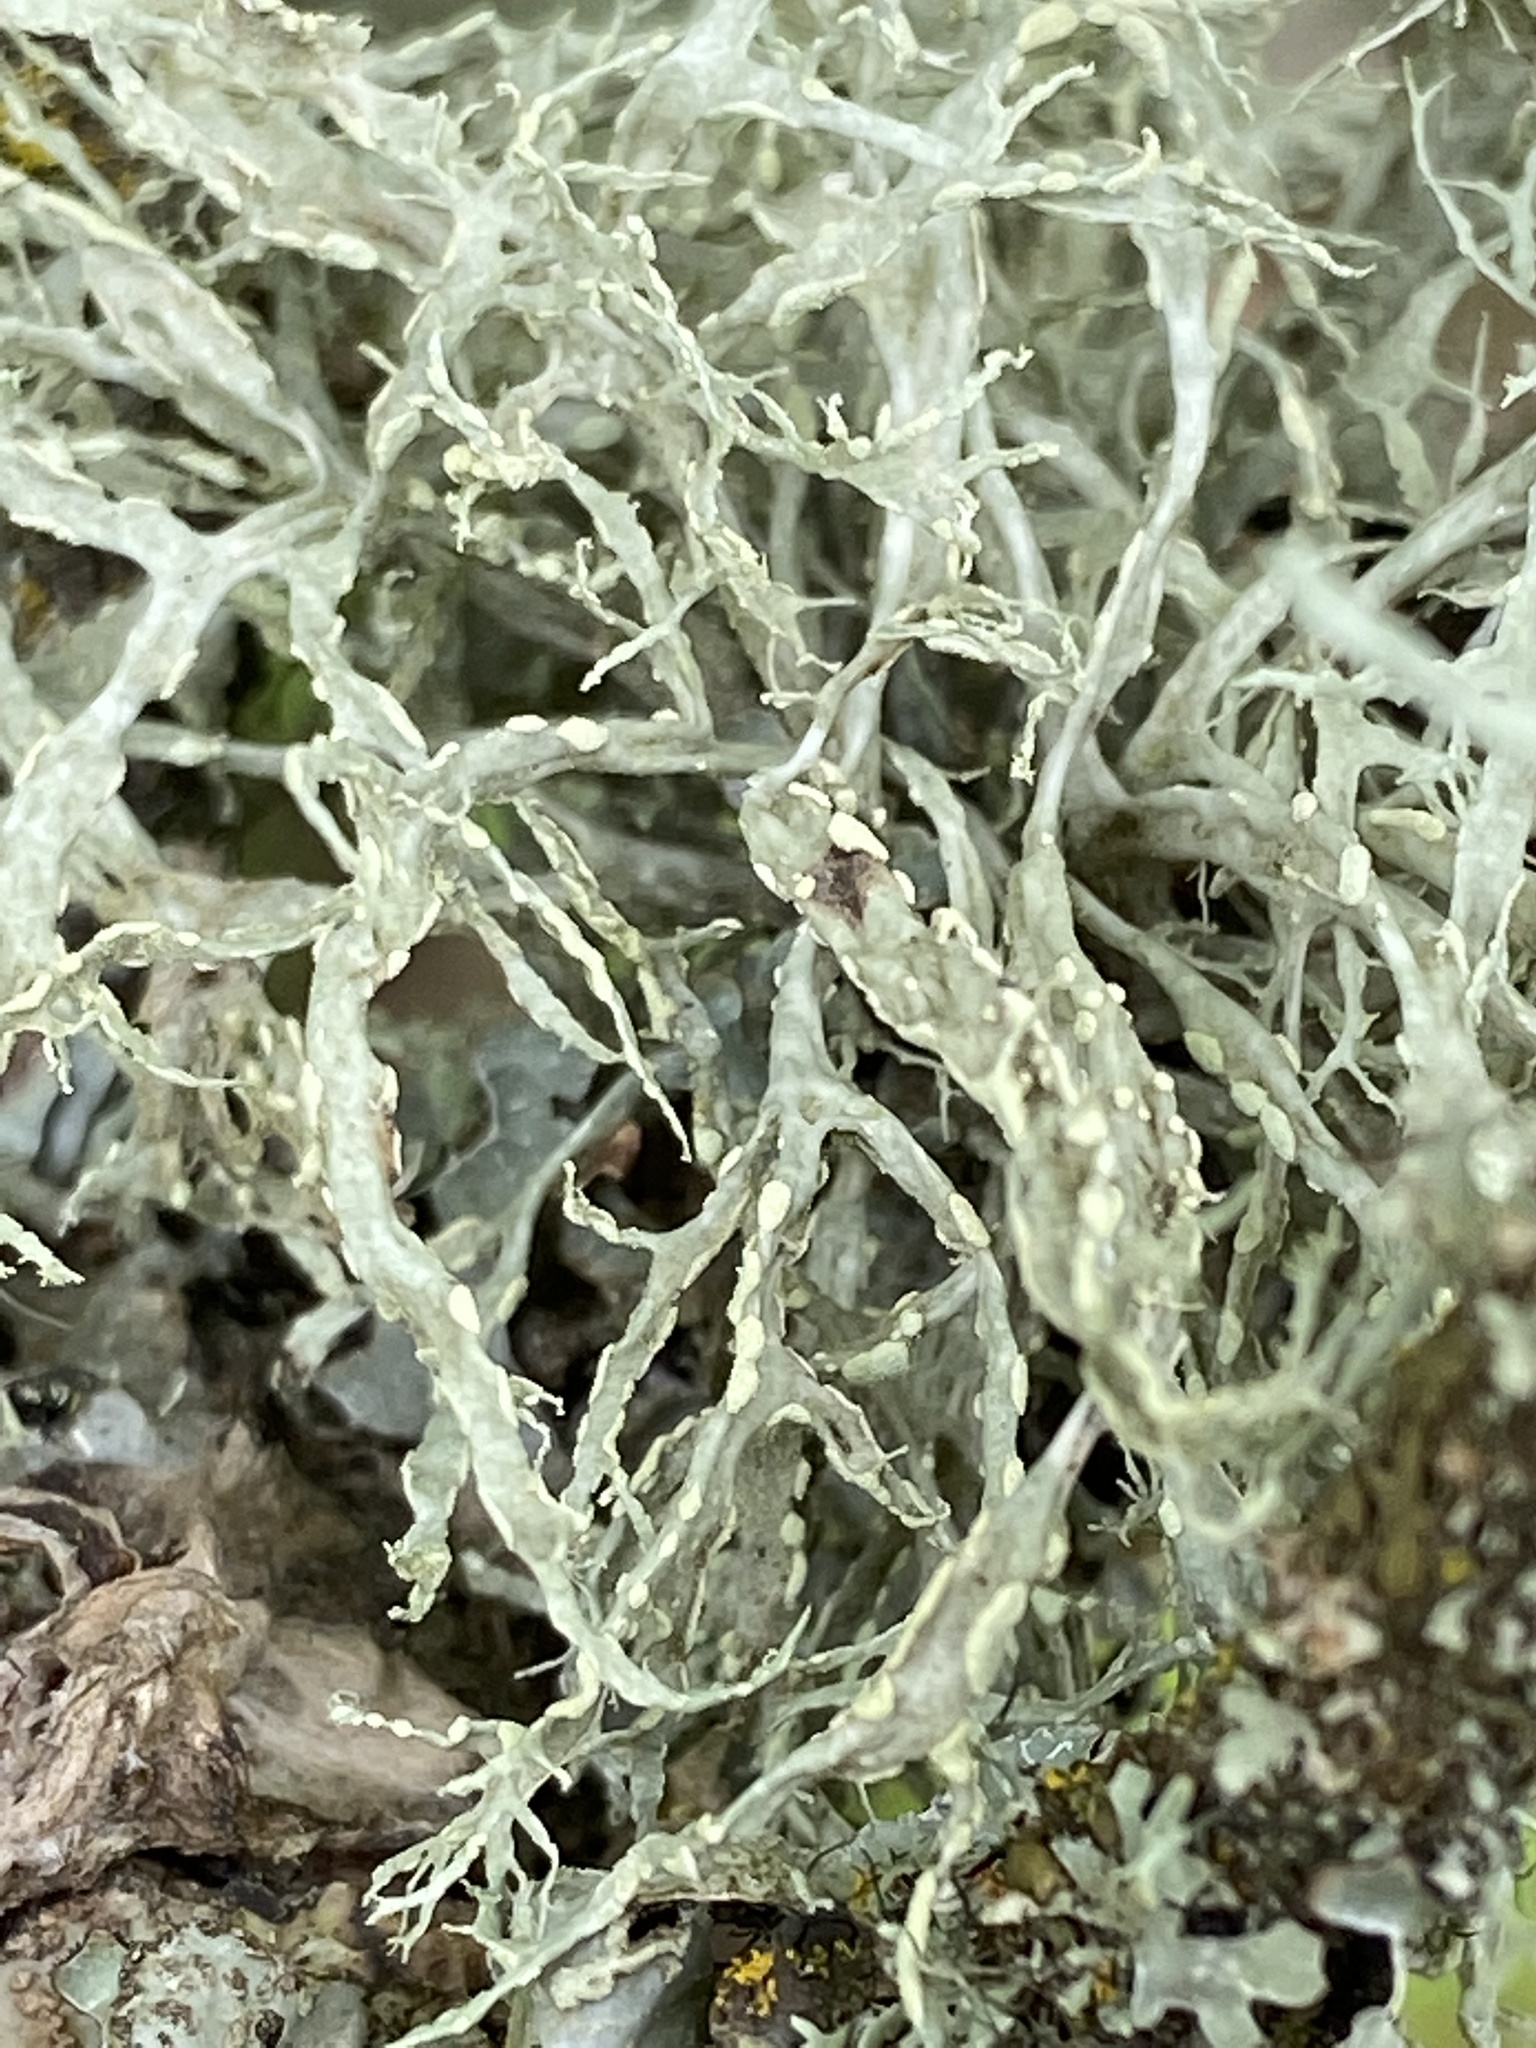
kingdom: Fungi
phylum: Ascomycota
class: Lecanoromycetes
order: Lecanorales
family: Ramalinaceae
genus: Ramalina
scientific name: Ramalina farinacea
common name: Farinose cartilage lichen
